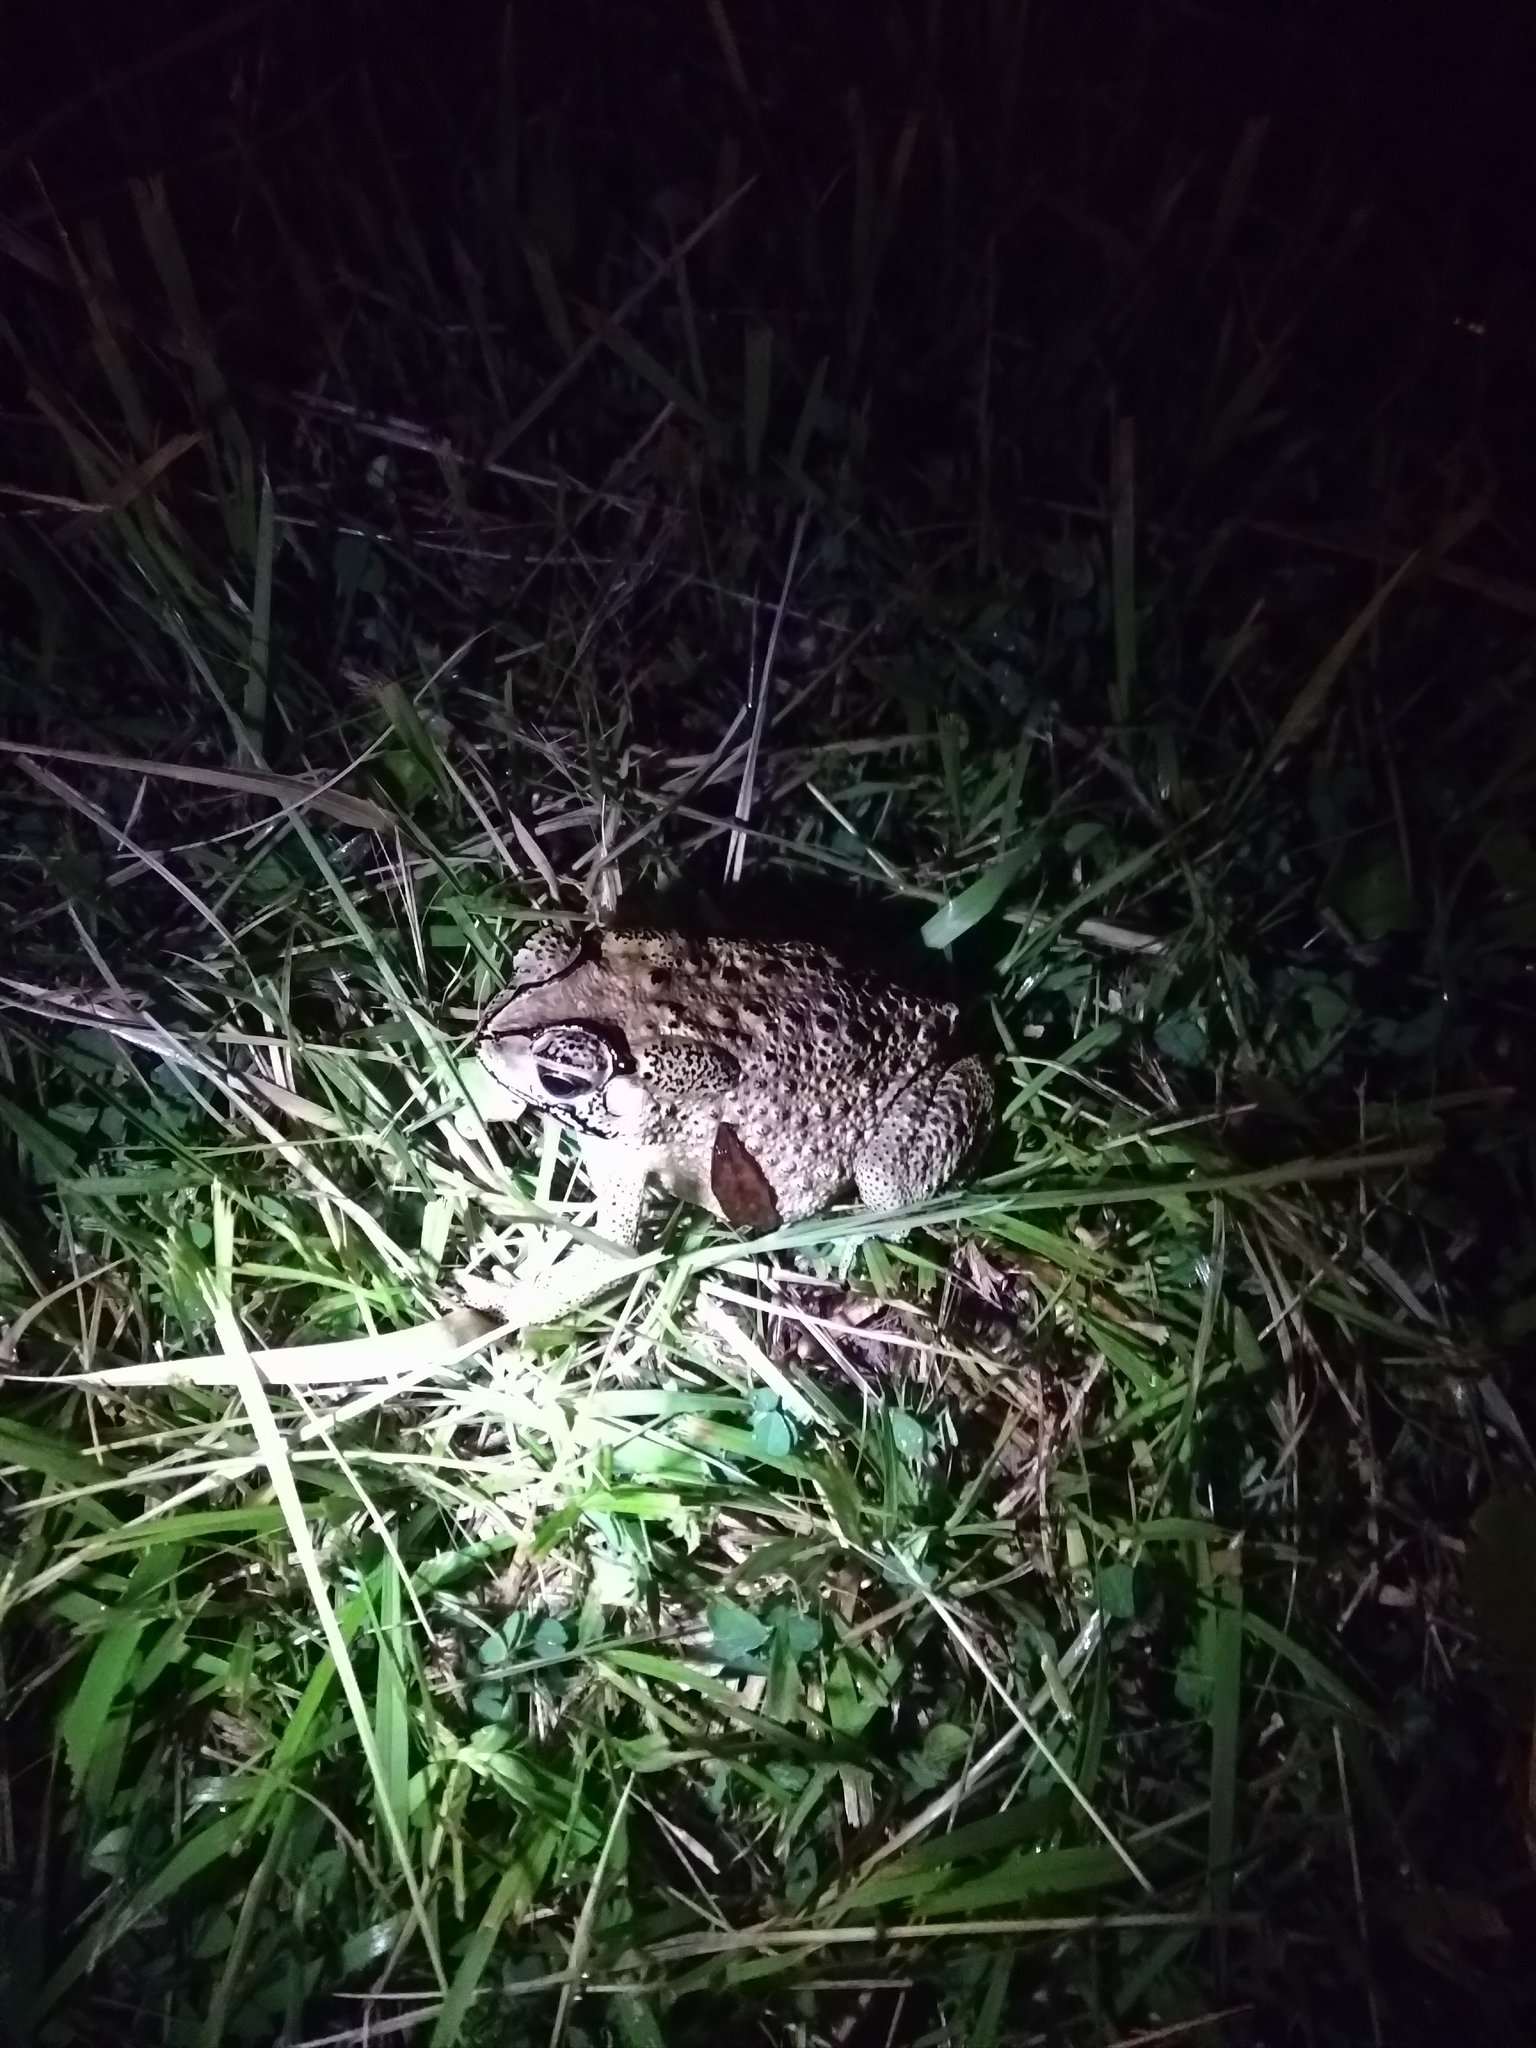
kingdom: Animalia
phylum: Chordata
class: Amphibia
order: Anura
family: Bufonidae
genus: Duttaphrynus
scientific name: Duttaphrynus melanostictus
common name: Common sunda toad
